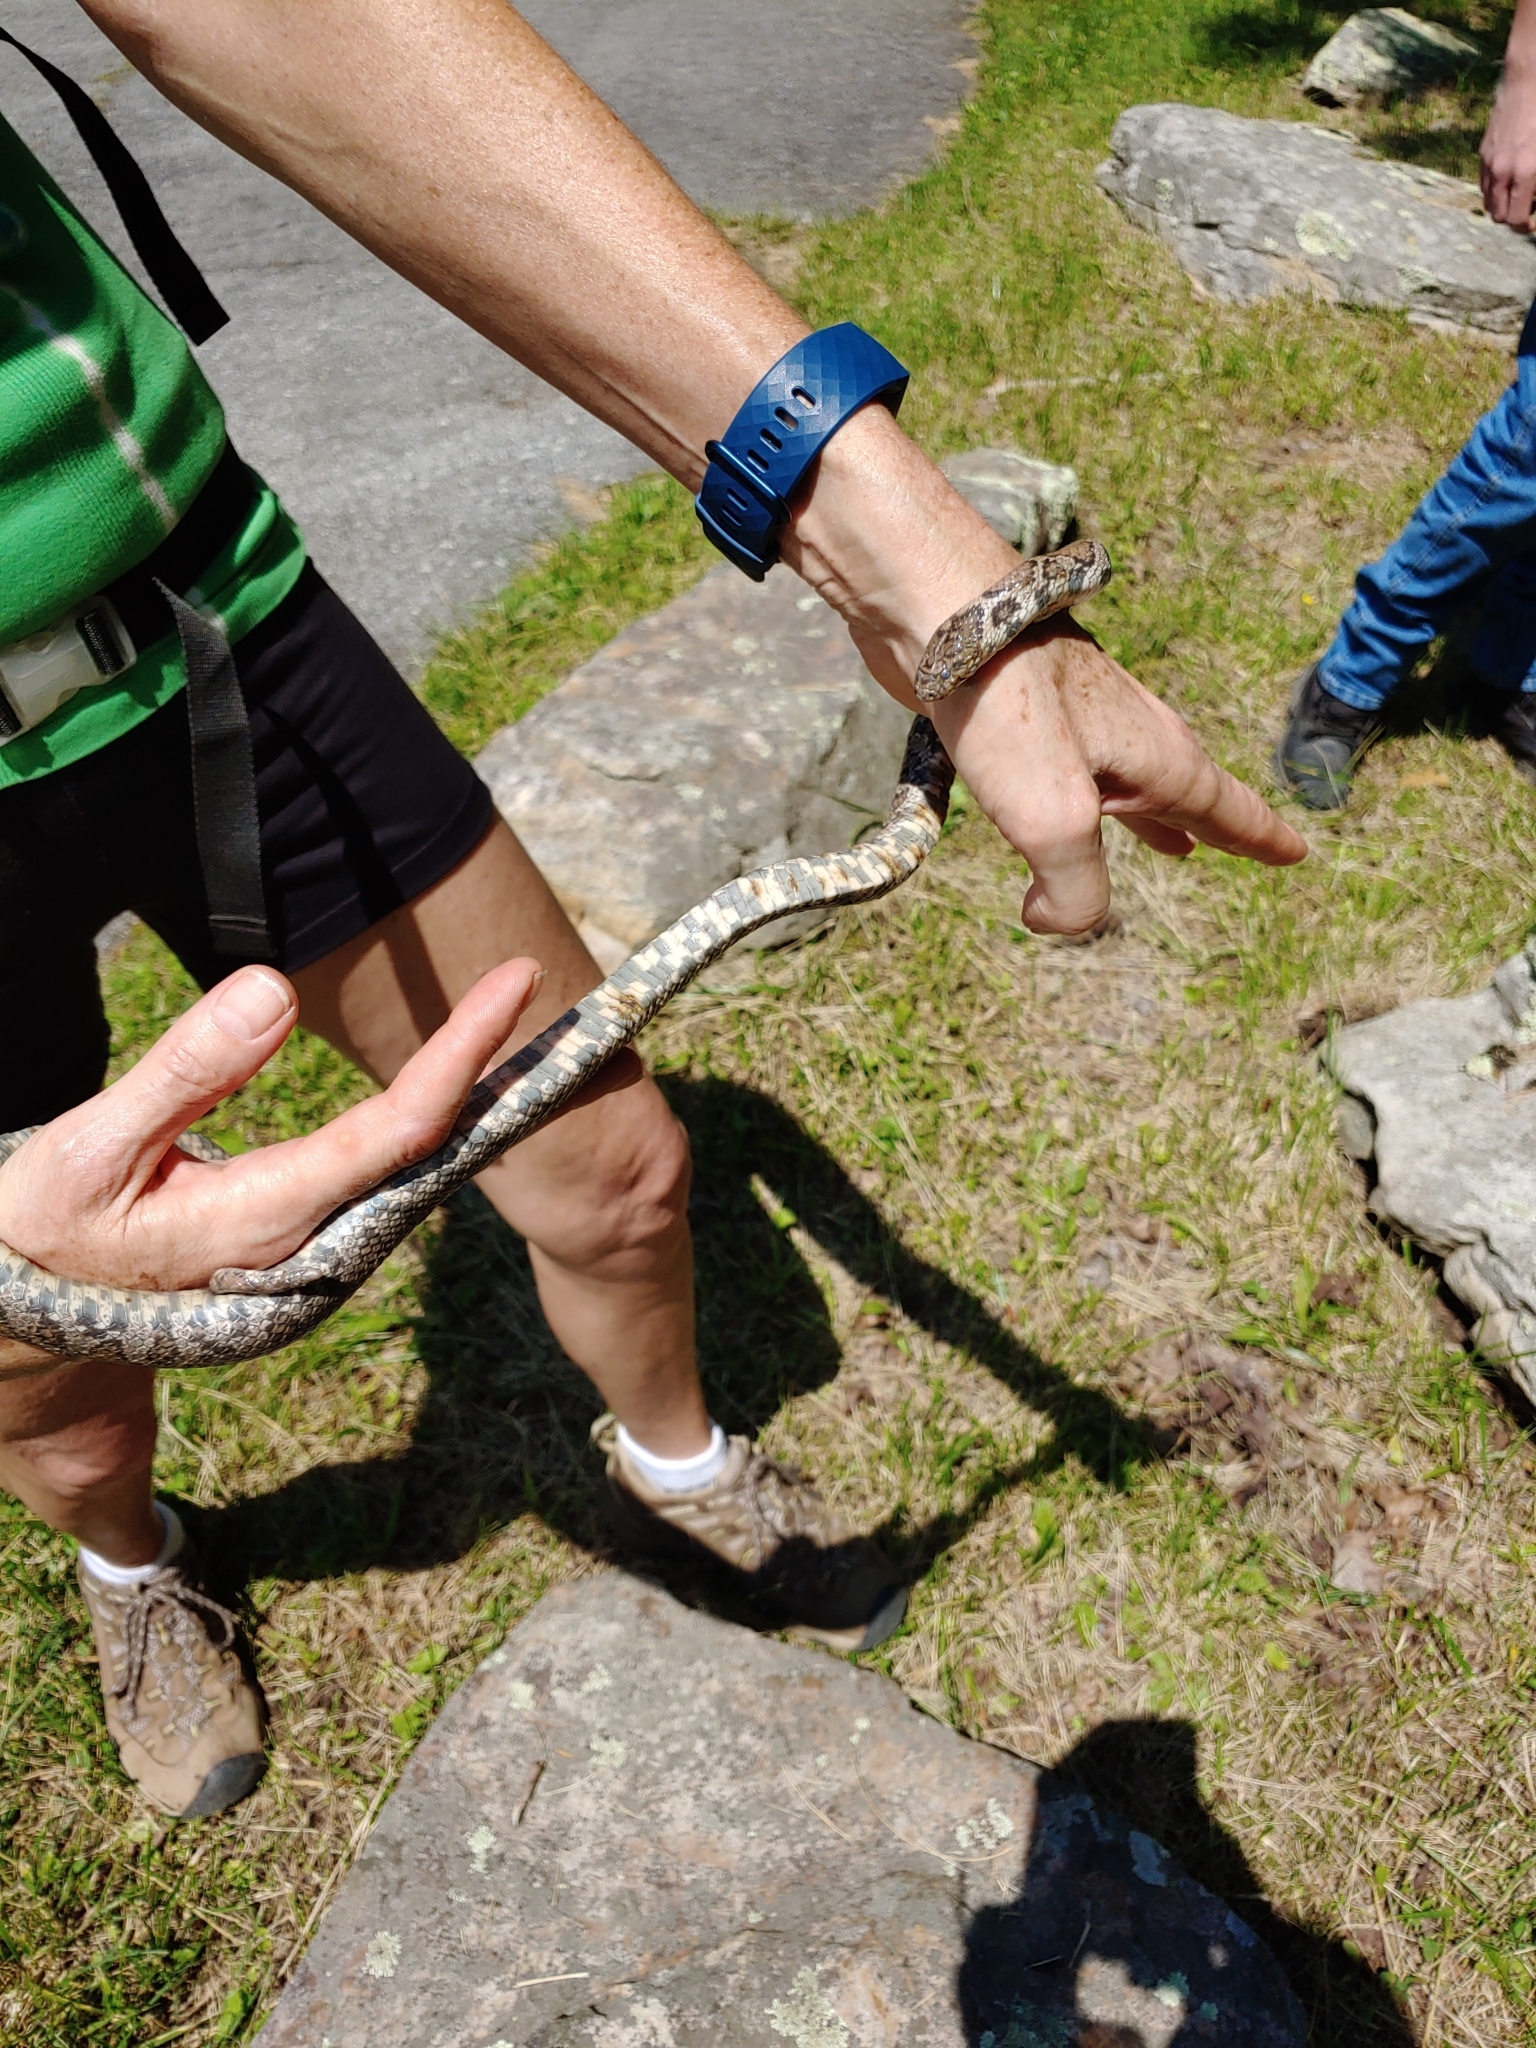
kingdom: Animalia
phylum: Chordata
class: Squamata
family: Colubridae
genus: Lampropeltis
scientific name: Lampropeltis triangulum
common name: Eastern milksnake
